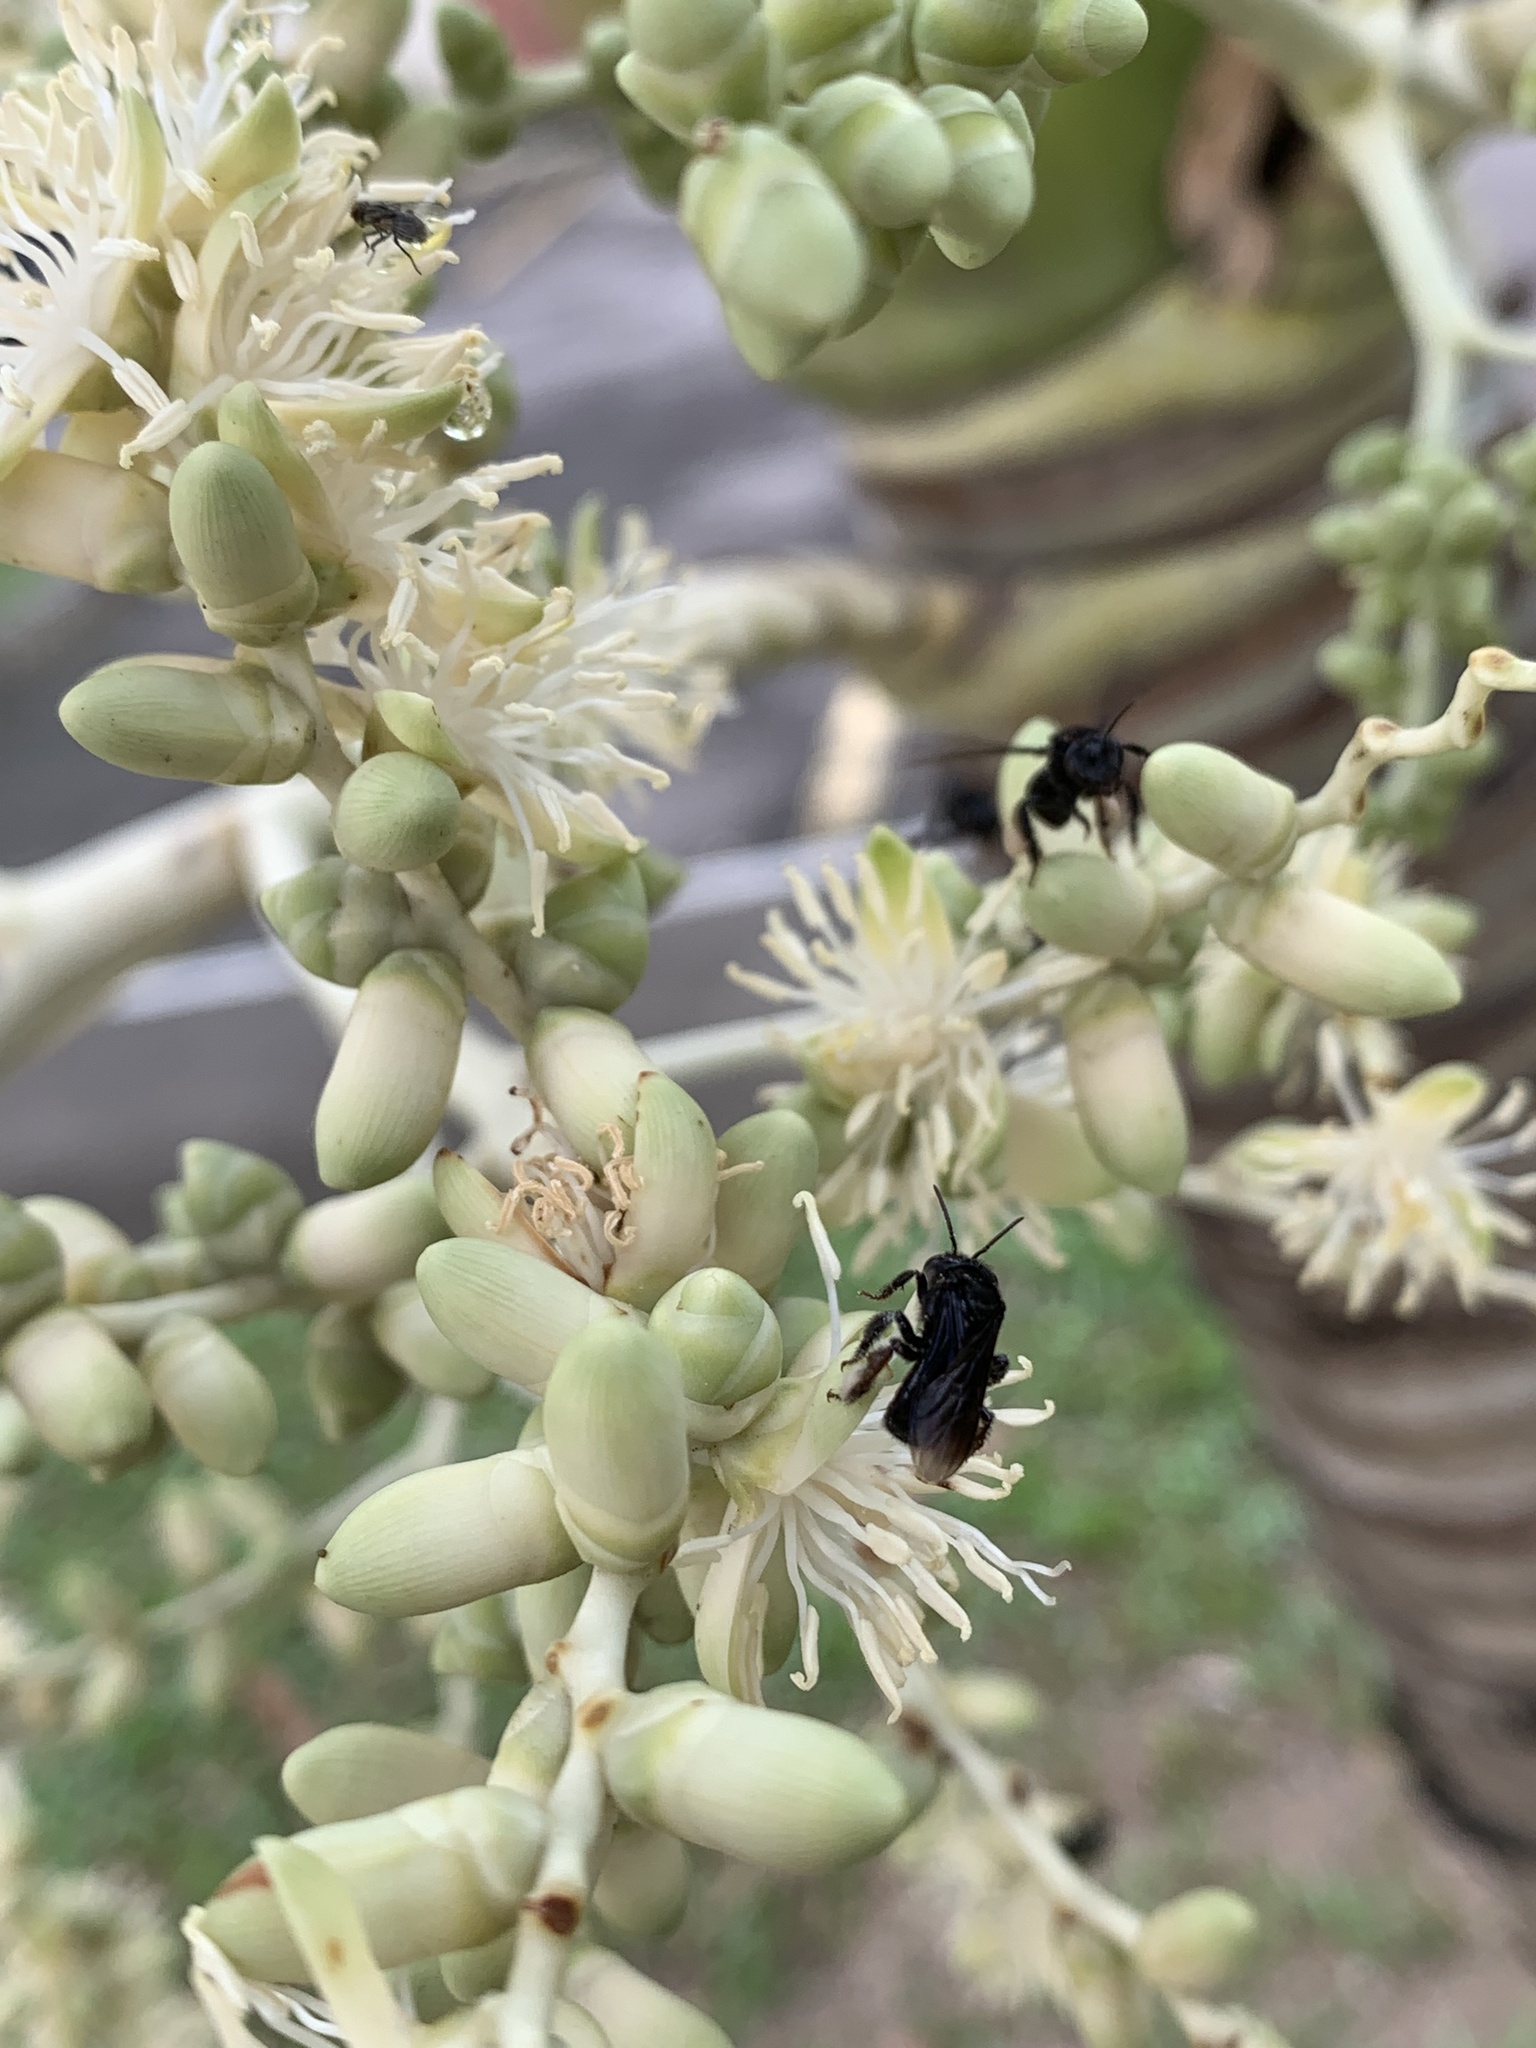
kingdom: Animalia
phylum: Arthropoda
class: Insecta
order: Hymenoptera
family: Apidae
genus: Trigona
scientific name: Trigona spinipes
